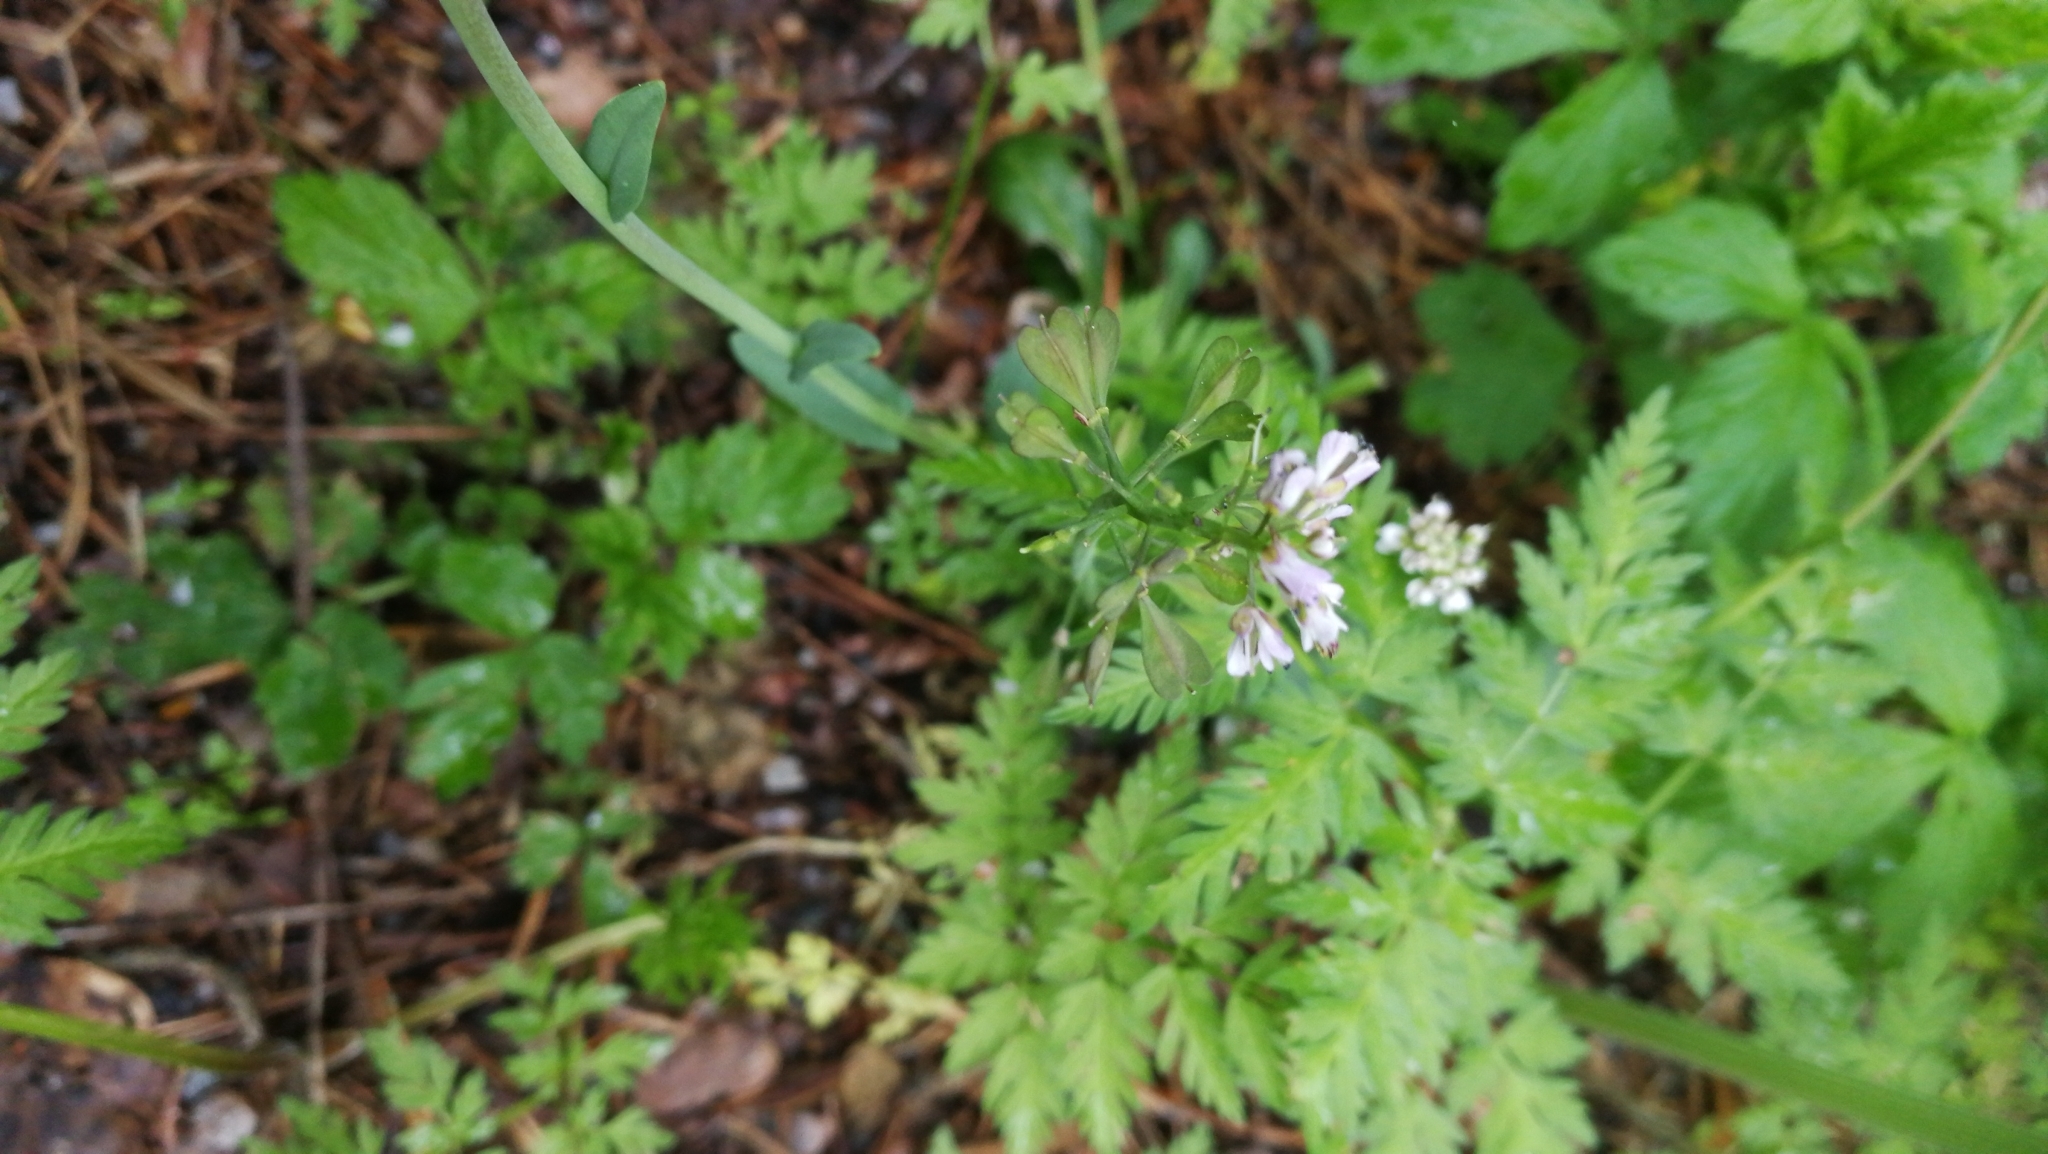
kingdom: Plantae
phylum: Tracheophyta
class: Magnoliopsida
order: Brassicales
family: Brassicaceae
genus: Noccaea
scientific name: Noccaea caerulescens
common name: Alpine pennycress
